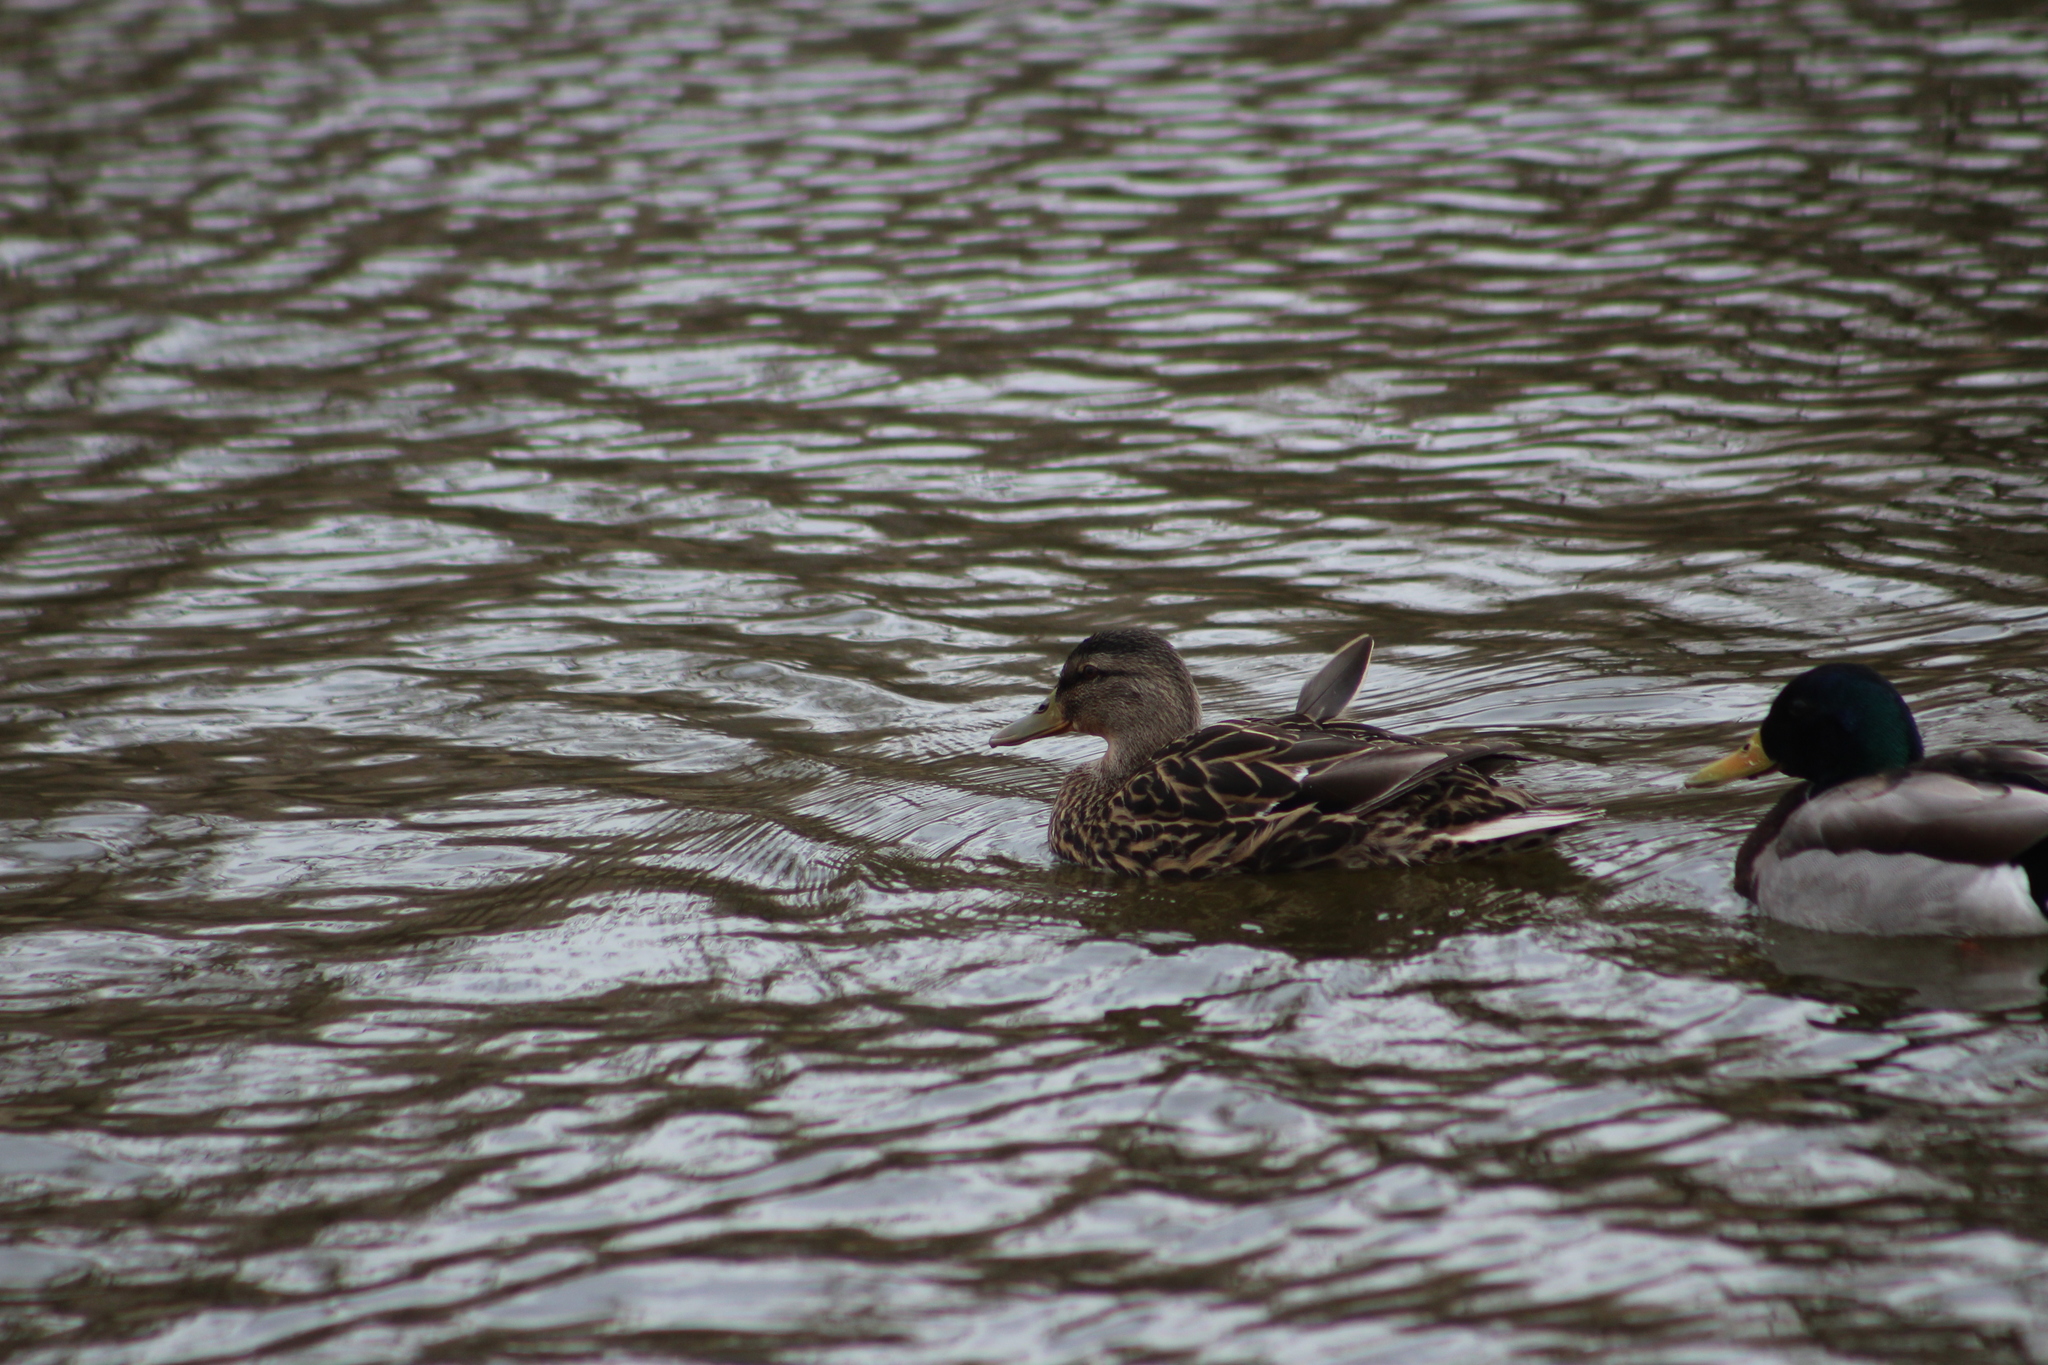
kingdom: Animalia
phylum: Chordata
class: Aves
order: Anseriformes
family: Anatidae
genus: Anas
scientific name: Anas platyrhynchos
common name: Mallard
